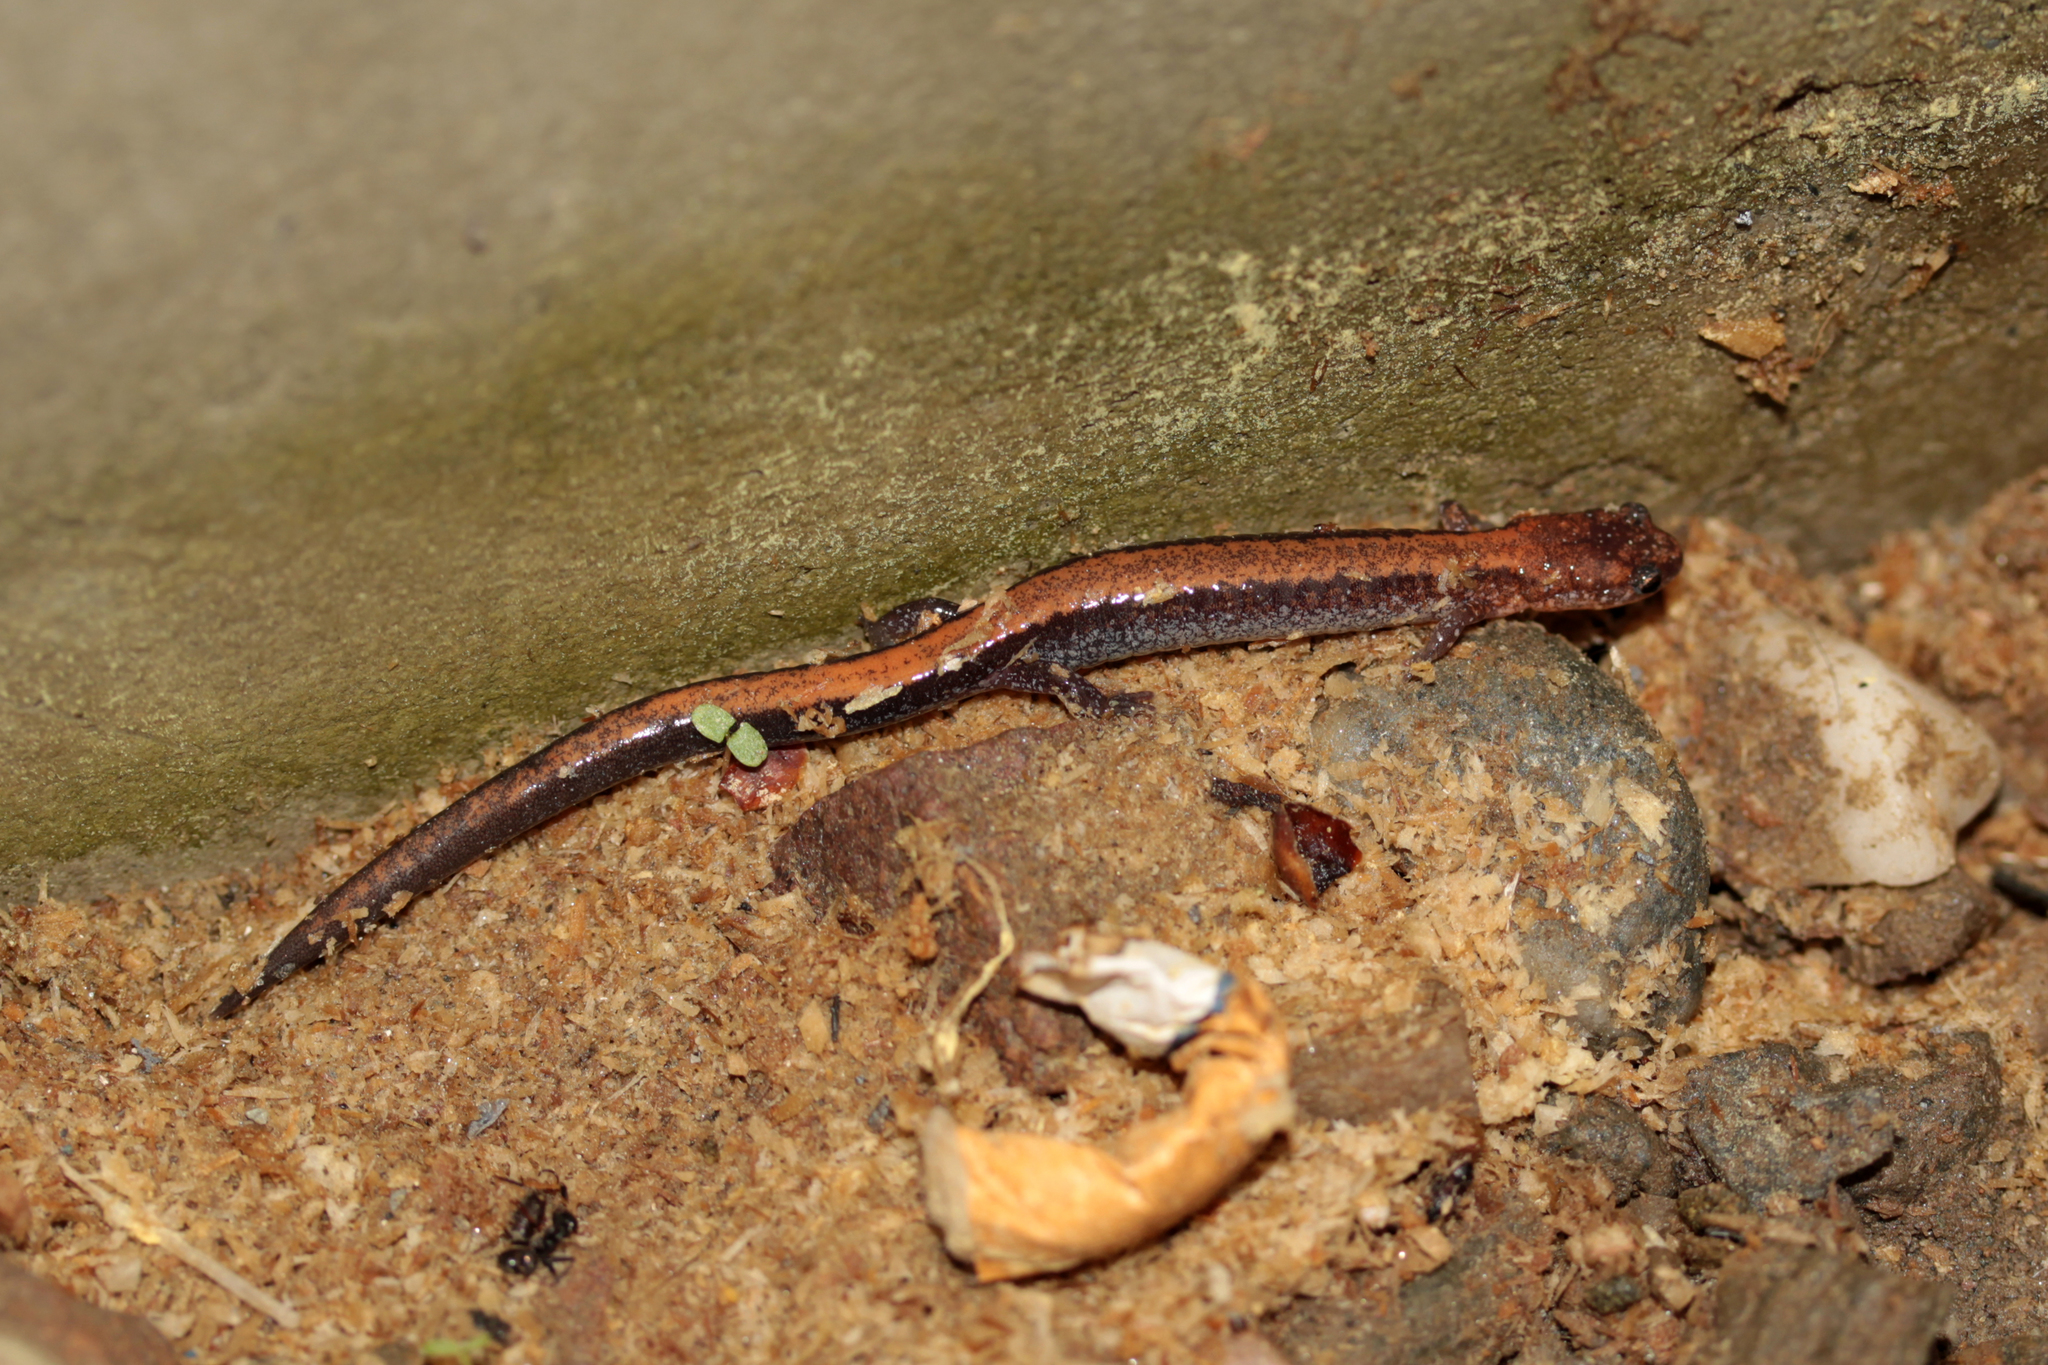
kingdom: Animalia
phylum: Chordata
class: Amphibia
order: Caudata
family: Plethodontidae
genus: Plethodon
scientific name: Plethodon cinereus
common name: Redback salamander
